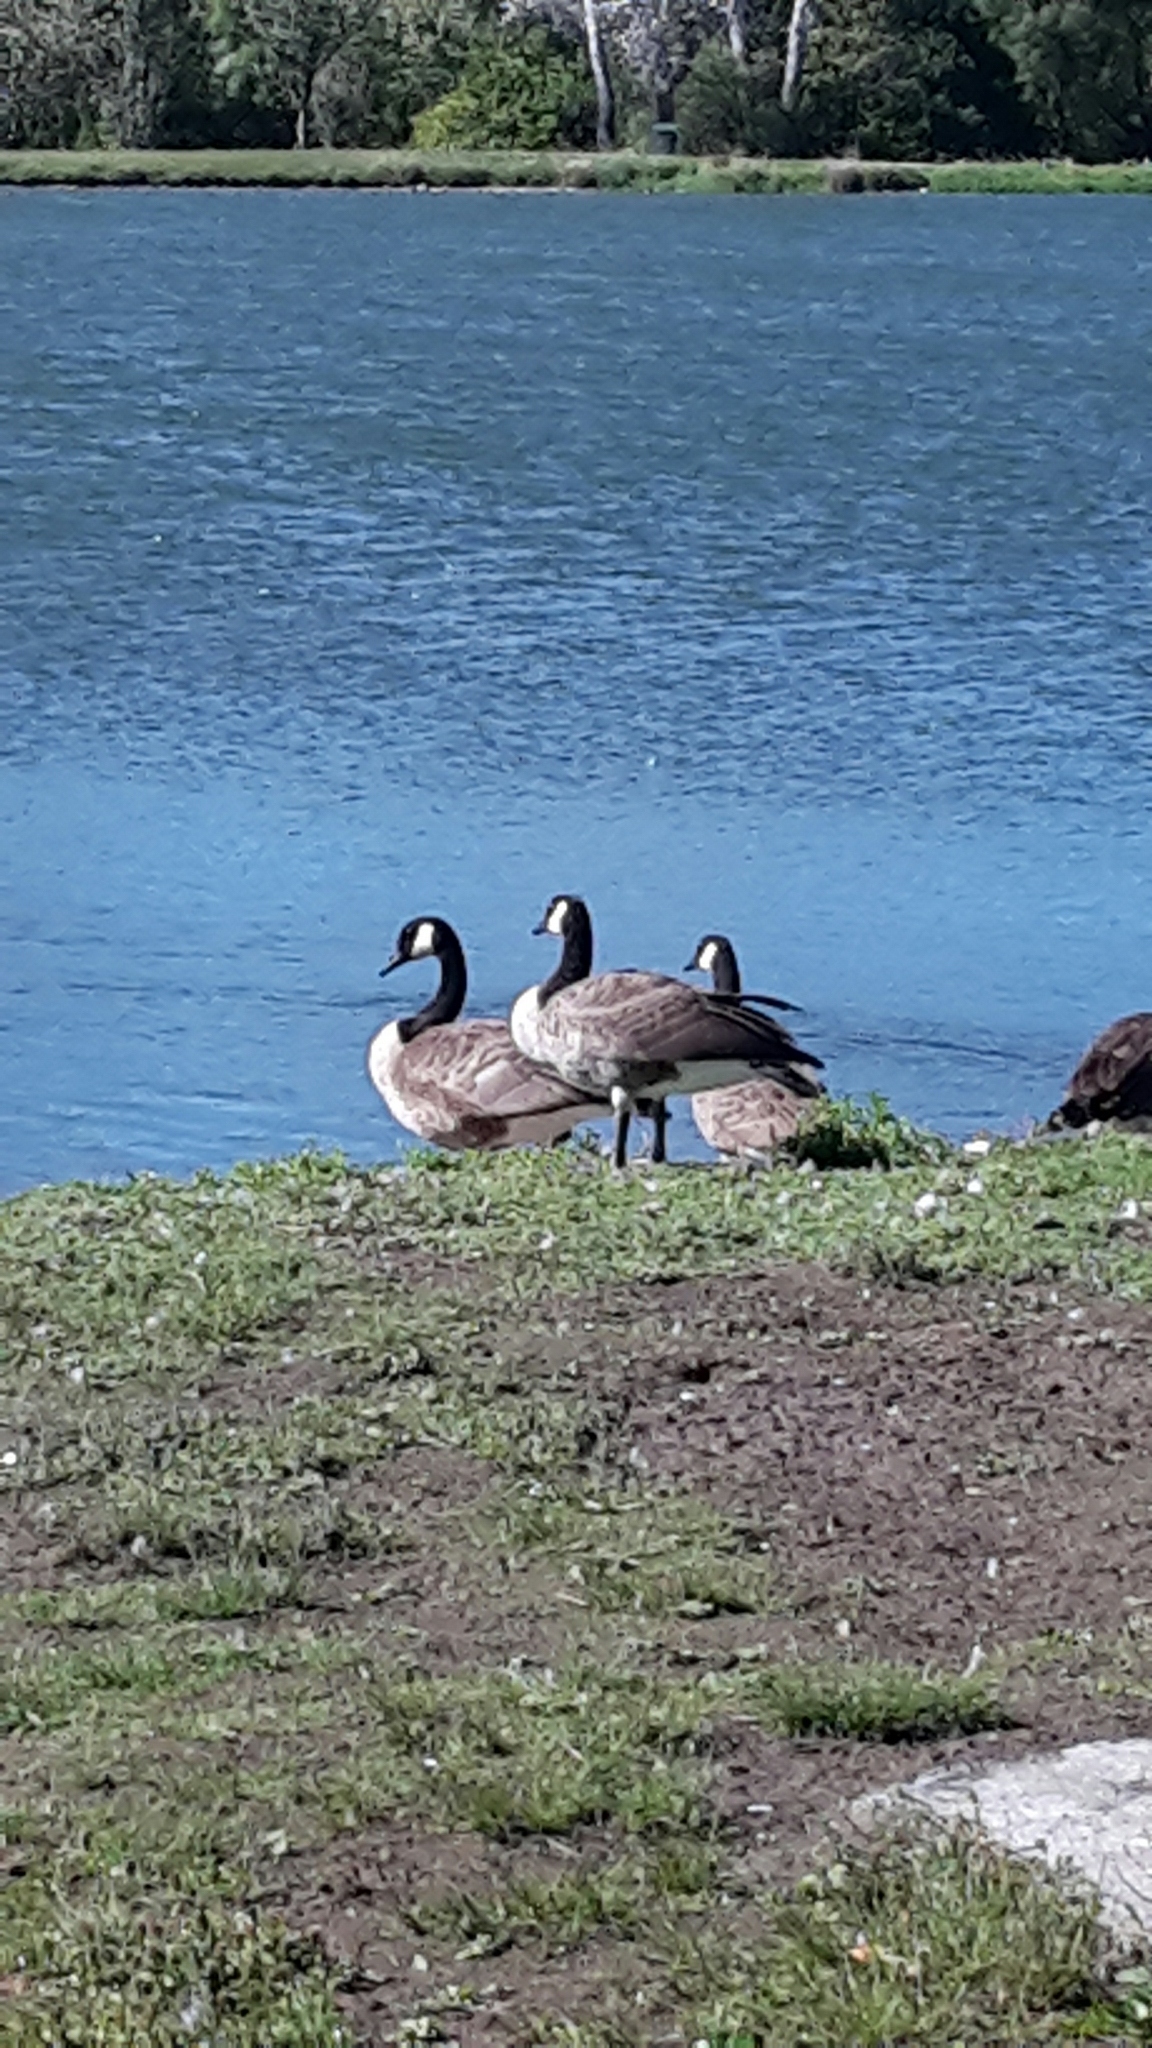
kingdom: Animalia
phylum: Chordata
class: Aves
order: Anseriformes
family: Anatidae
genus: Branta
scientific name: Branta canadensis
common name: Canada goose
